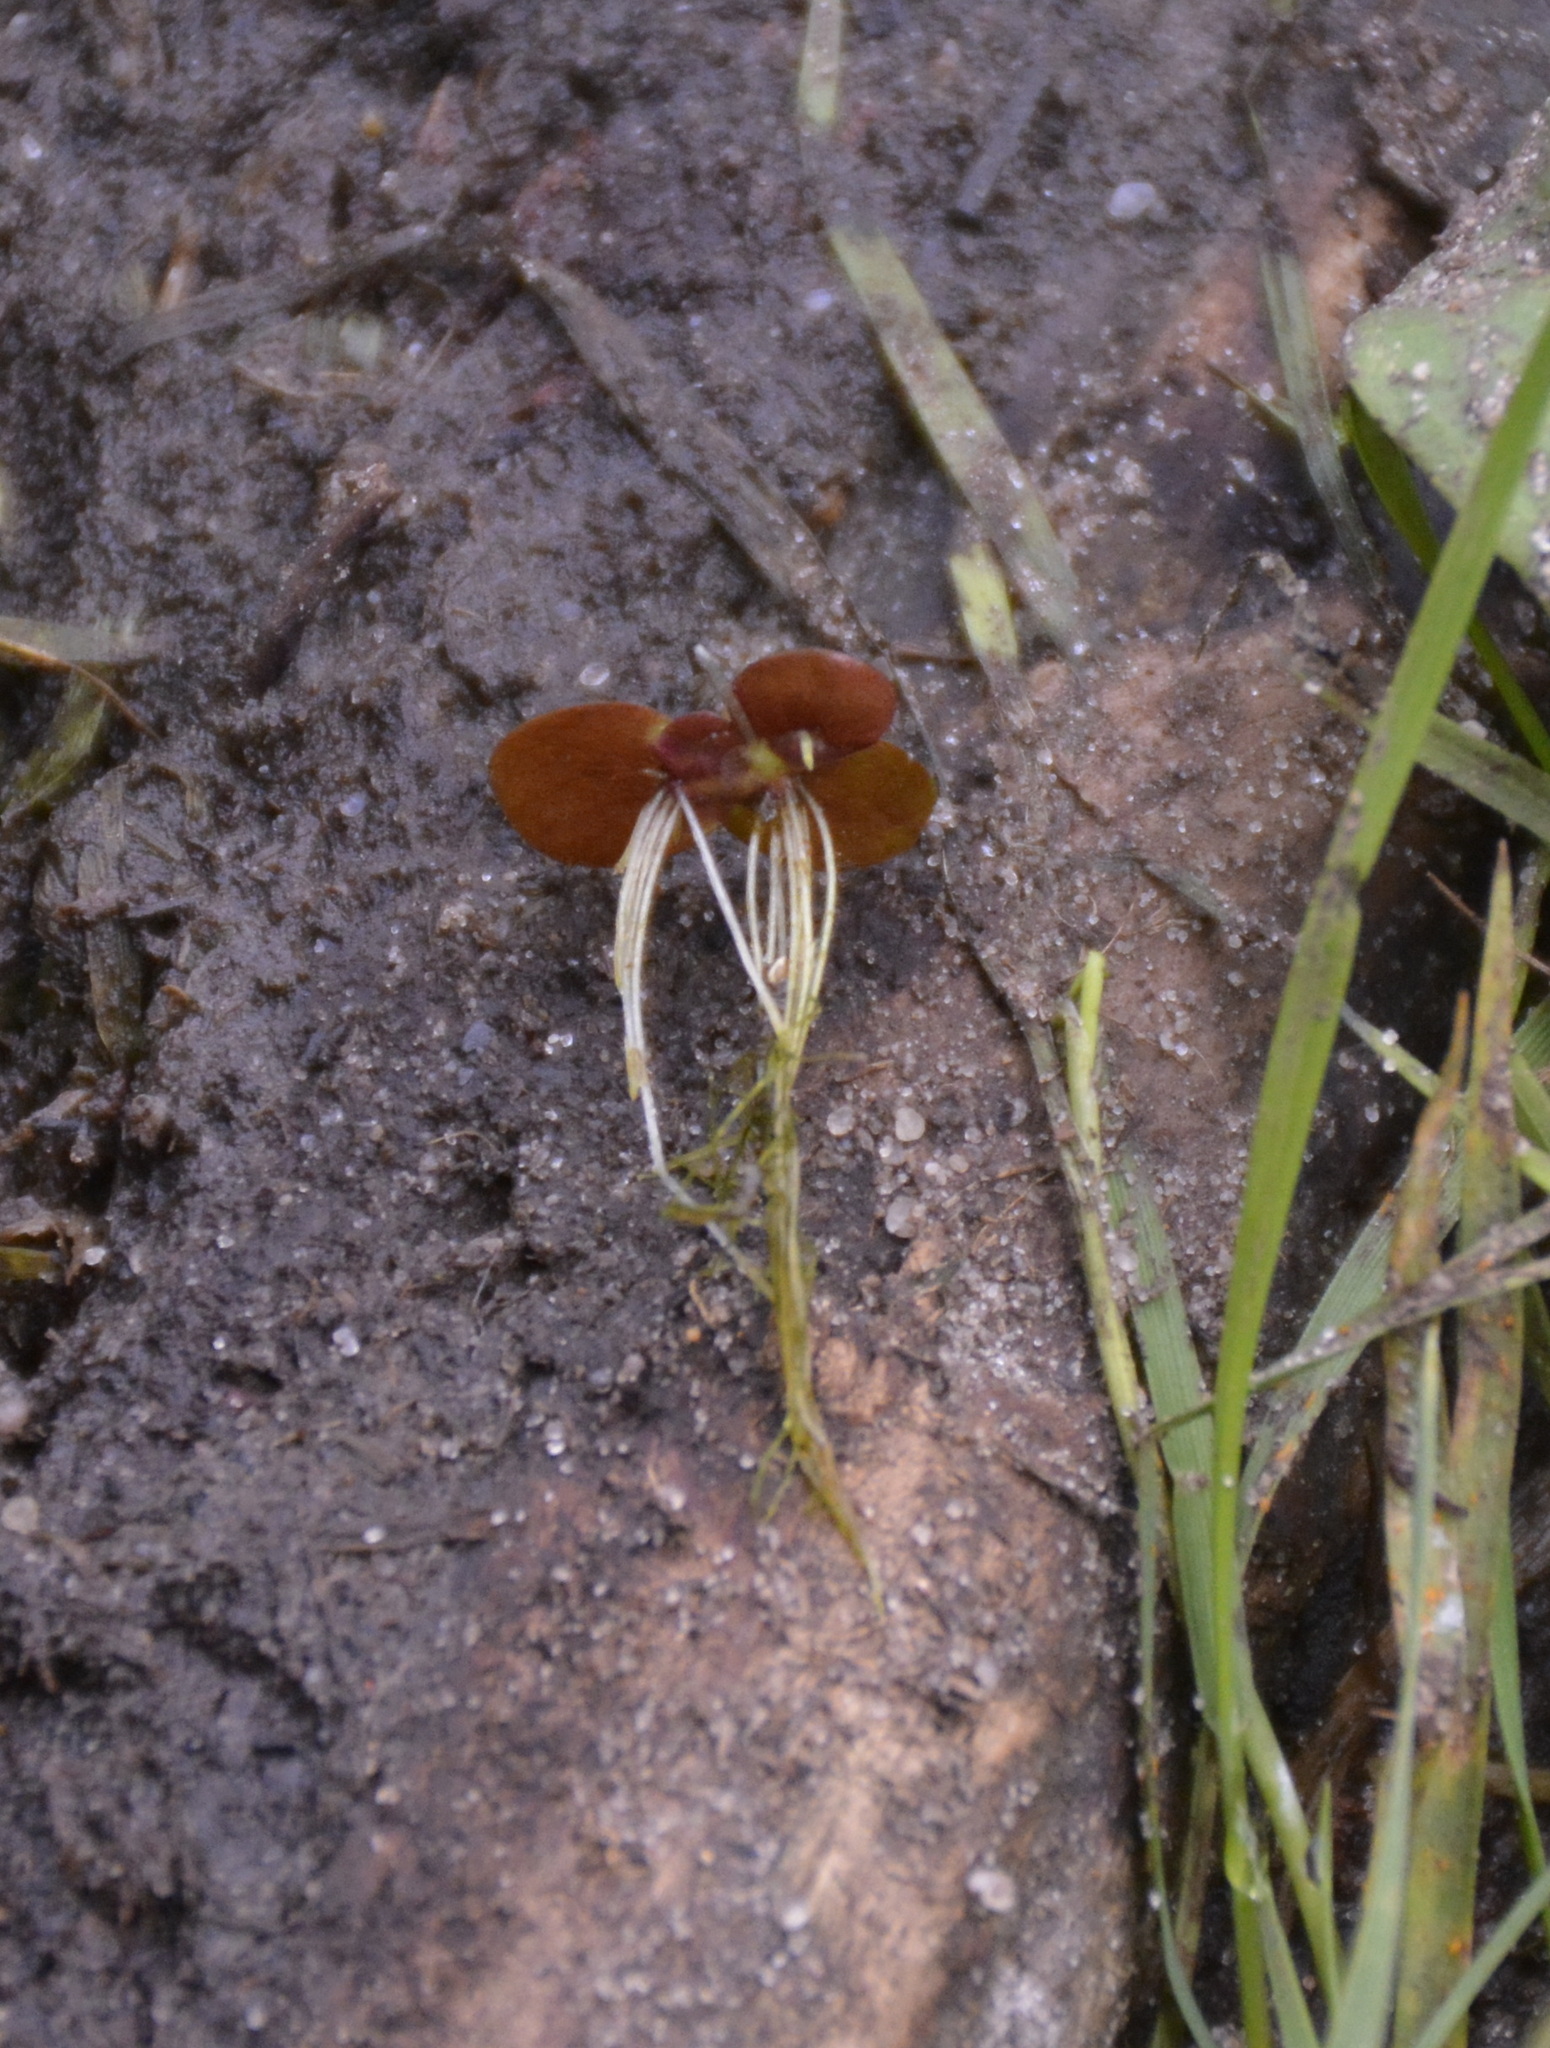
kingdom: Plantae
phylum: Tracheophyta
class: Liliopsida
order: Alismatales
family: Araceae
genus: Spirodela
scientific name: Spirodela polyrhiza
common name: Great duckweed
